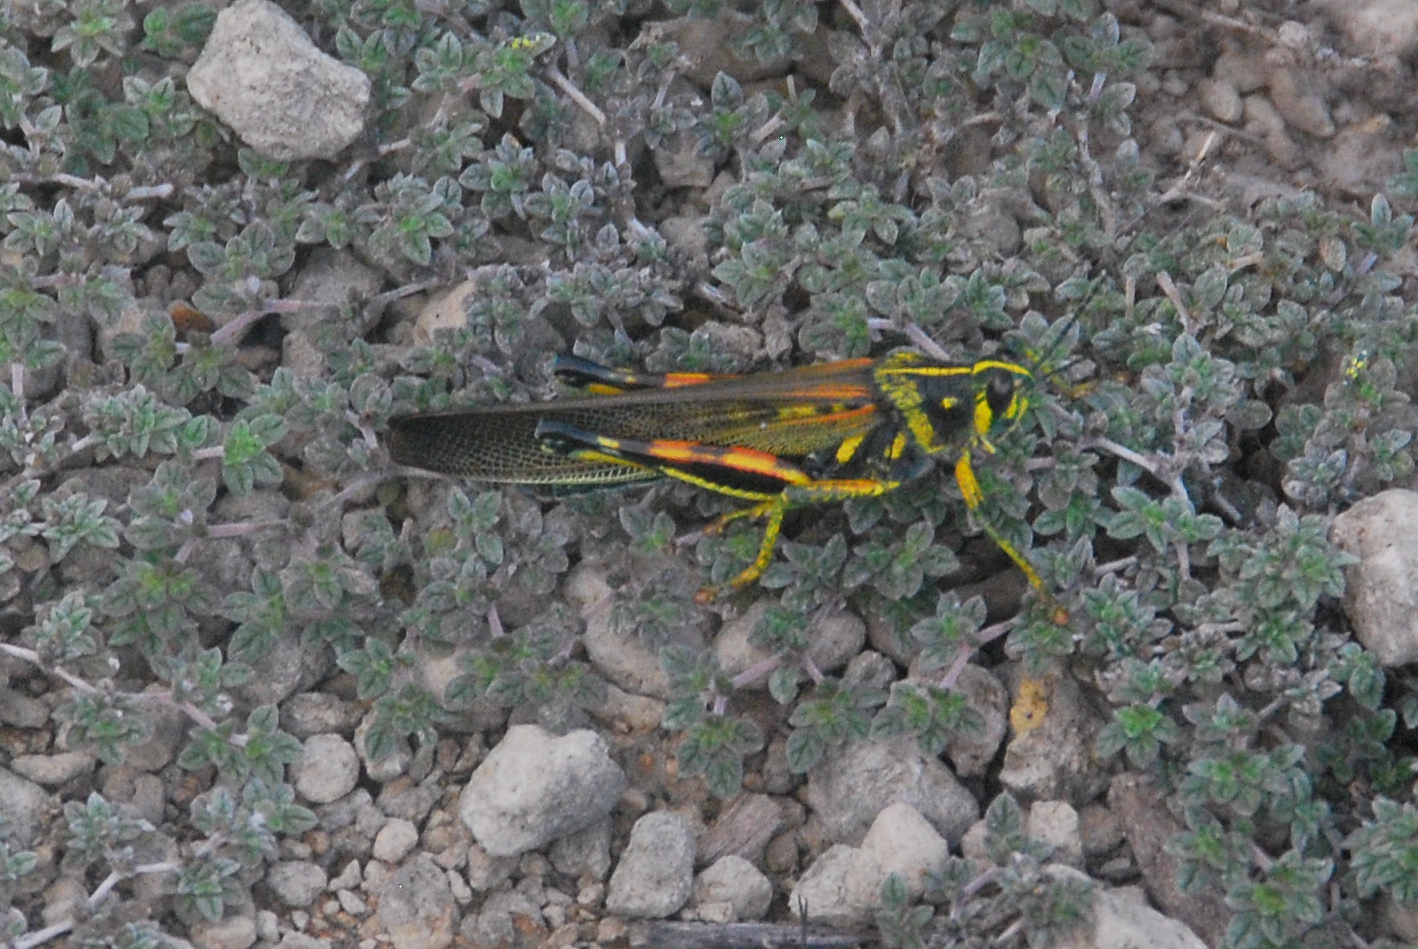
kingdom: Animalia
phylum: Arthropoda
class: Insecta
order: Orthoptera
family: Acrididae
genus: Schistocerca
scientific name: Schistocerca melanocera
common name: Large painted locust
